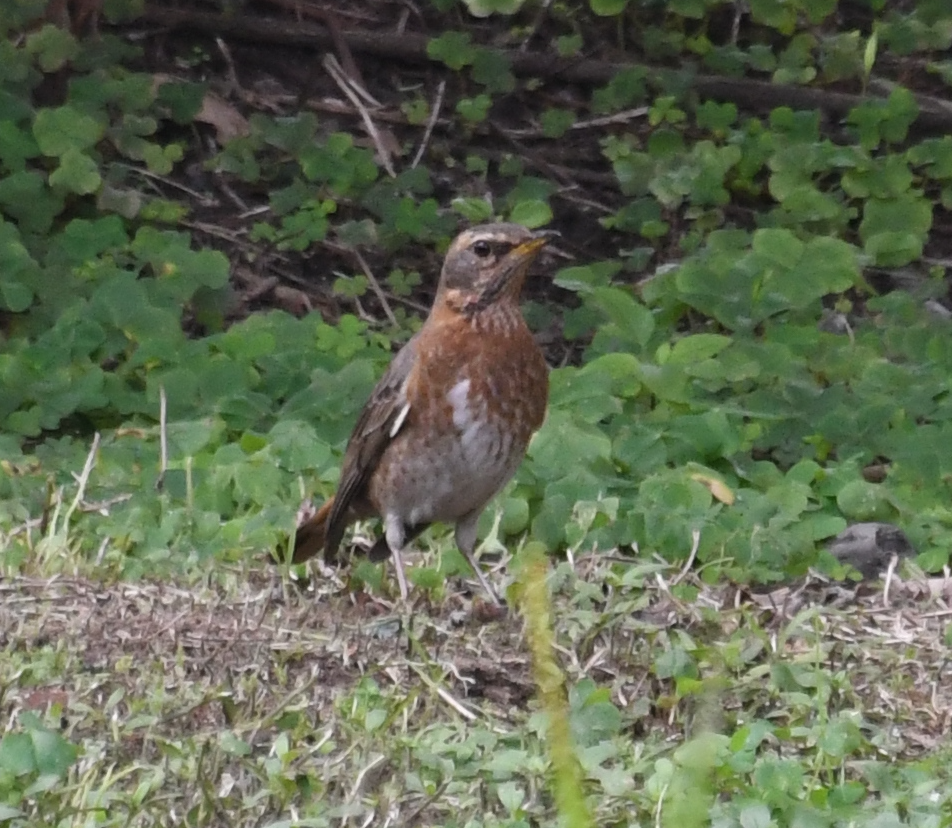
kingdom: Animalia
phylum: Chordata
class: Aves
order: Passeriformes
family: Turdidae
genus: Turdus
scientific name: Turdus naumanni
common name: Naumann's thrush
